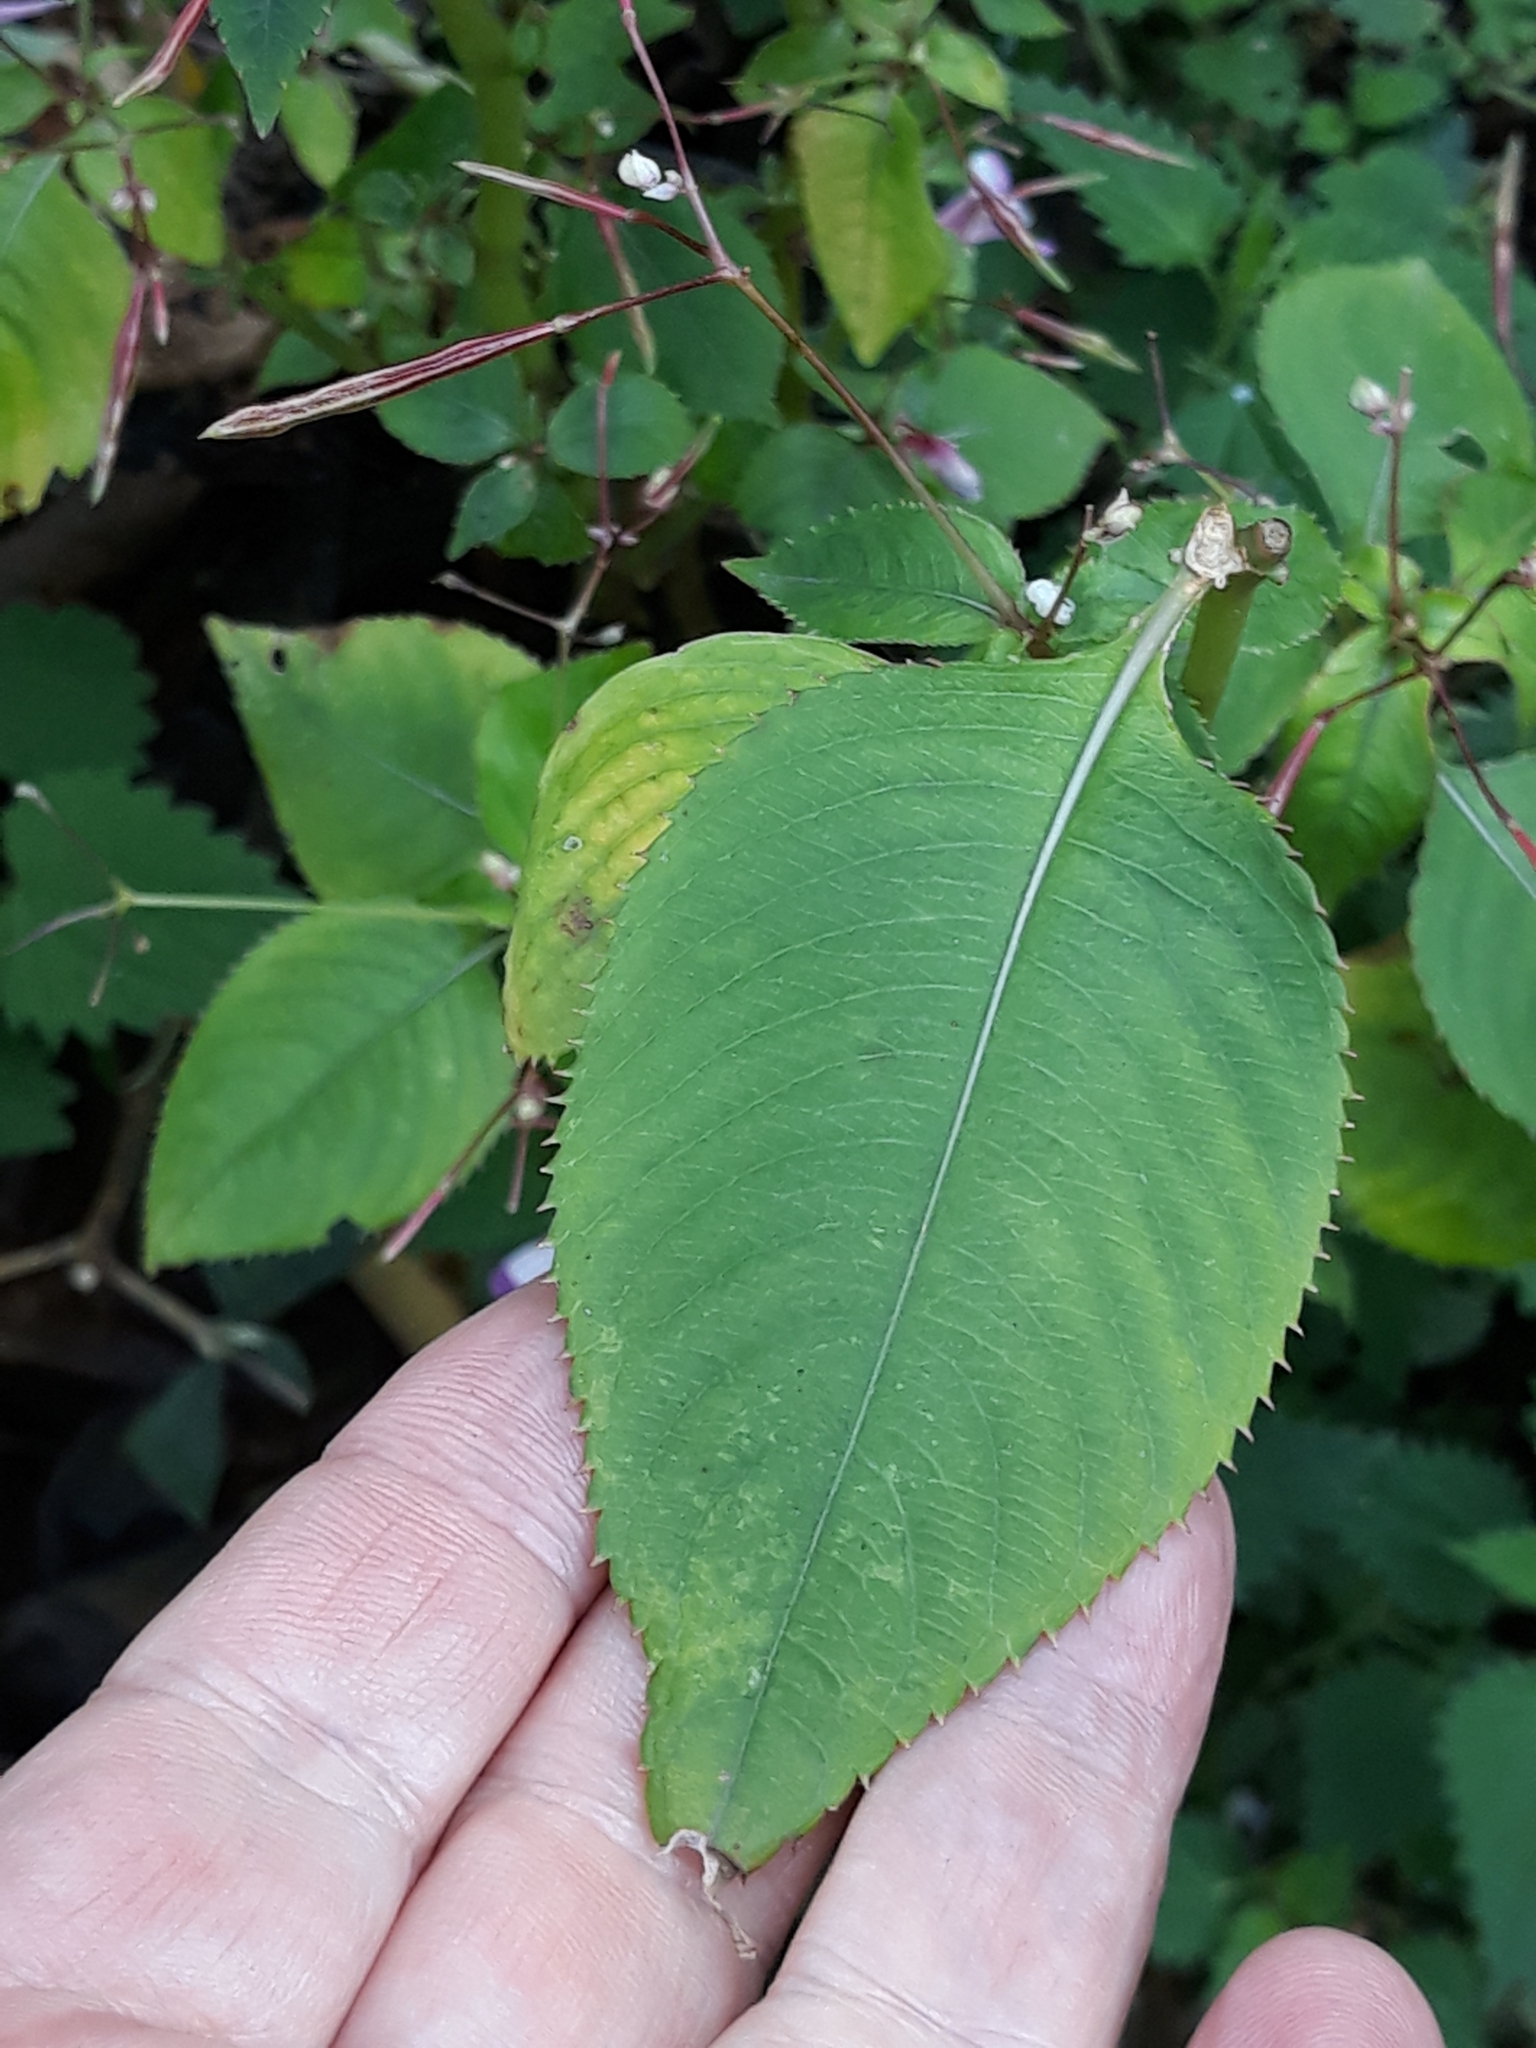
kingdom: Plantae
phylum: Tracheophyta
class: Magnoliopsida
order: Ericales
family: Balsaminaceae
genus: Impatiens
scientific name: Impatiens balfourii
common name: Balfour's touch-me-not
